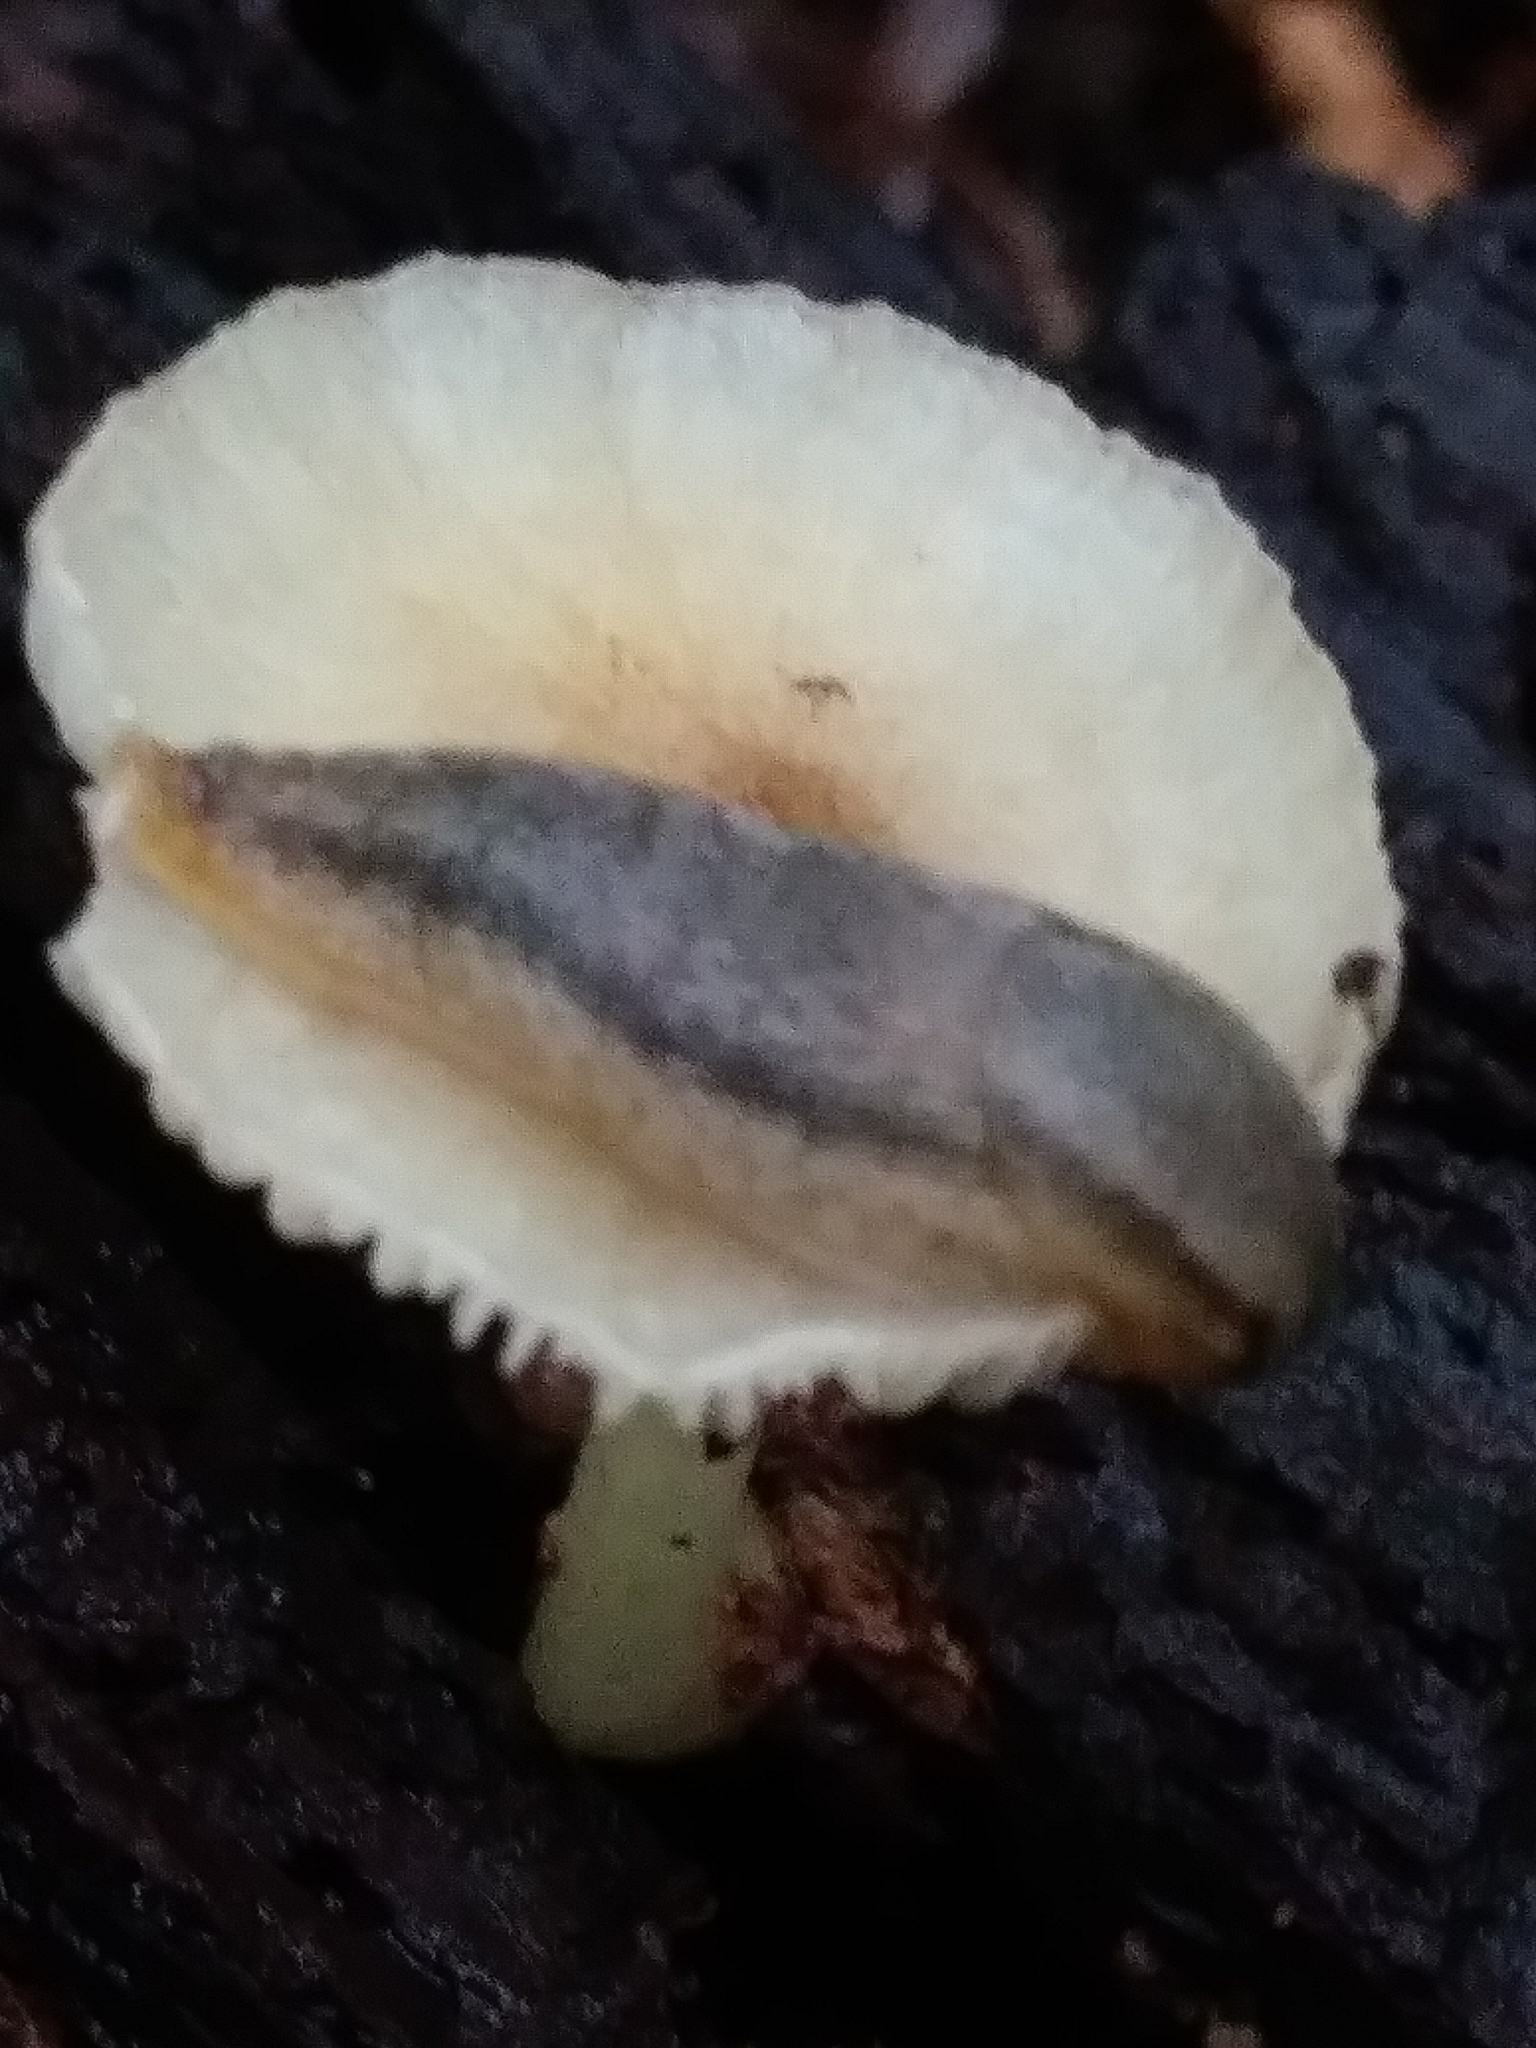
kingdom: Plantae
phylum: Tracheophyta
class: Magnoliopsida
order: Ranunculales
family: Berberidaceae
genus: Berberis
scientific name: Berberis thunbergii
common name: Japanese barberry
